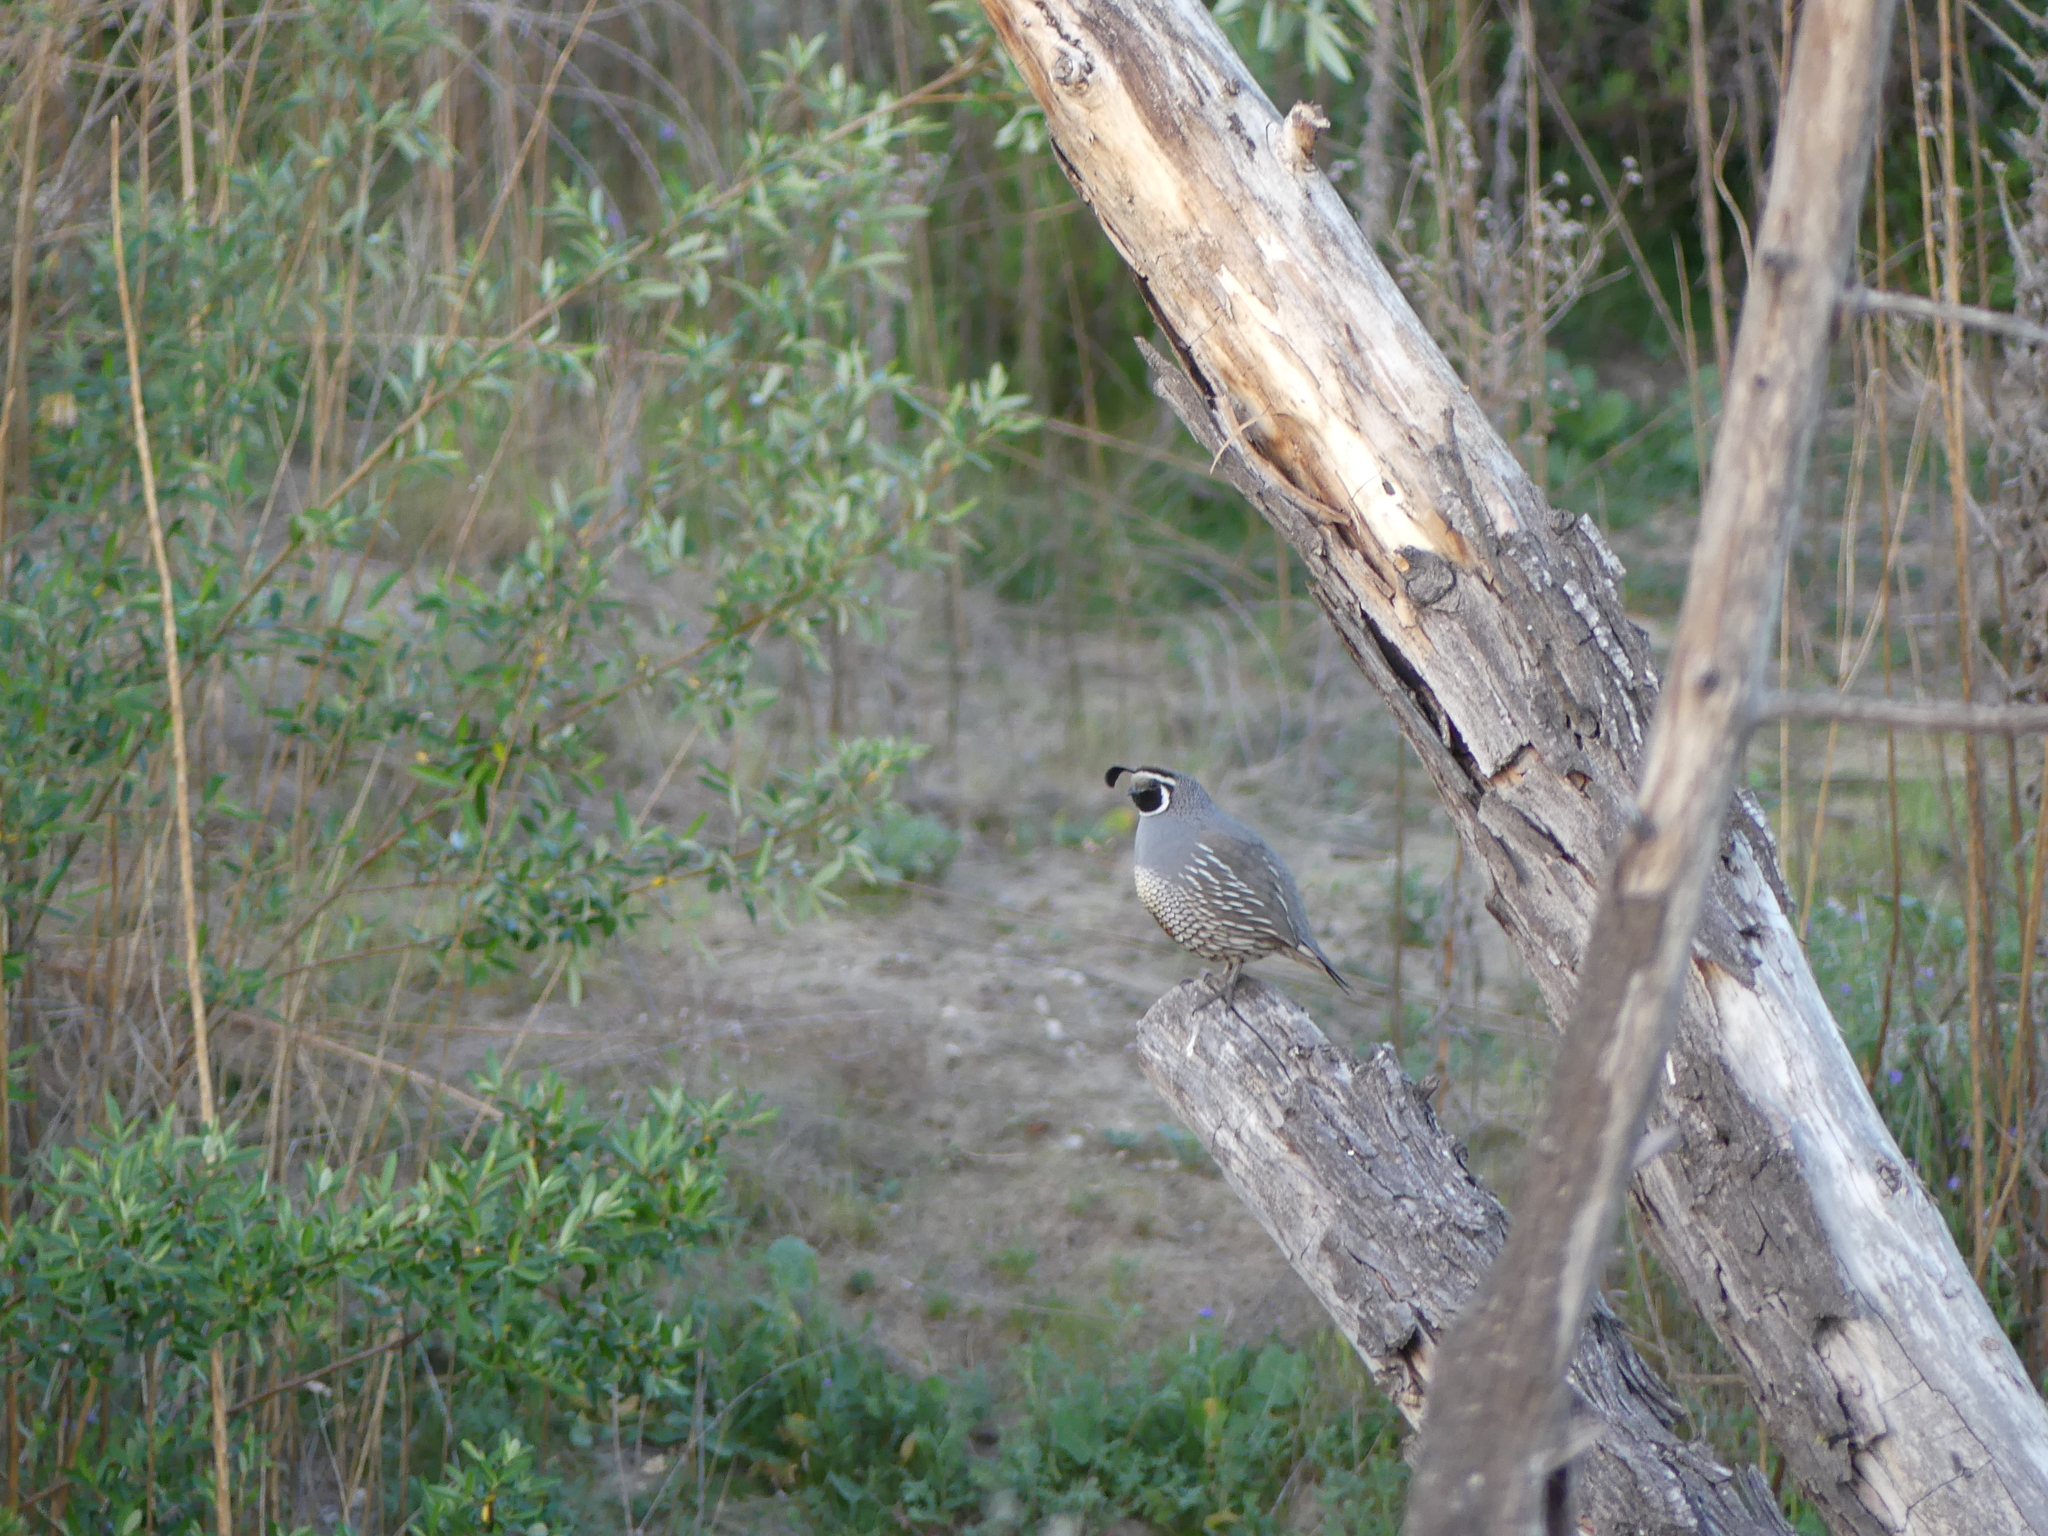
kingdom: Animalia
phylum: Chordata
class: Aves
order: Galliformes
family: Odontophoridae
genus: Callipepla
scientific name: Callipepla californica
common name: California quail
